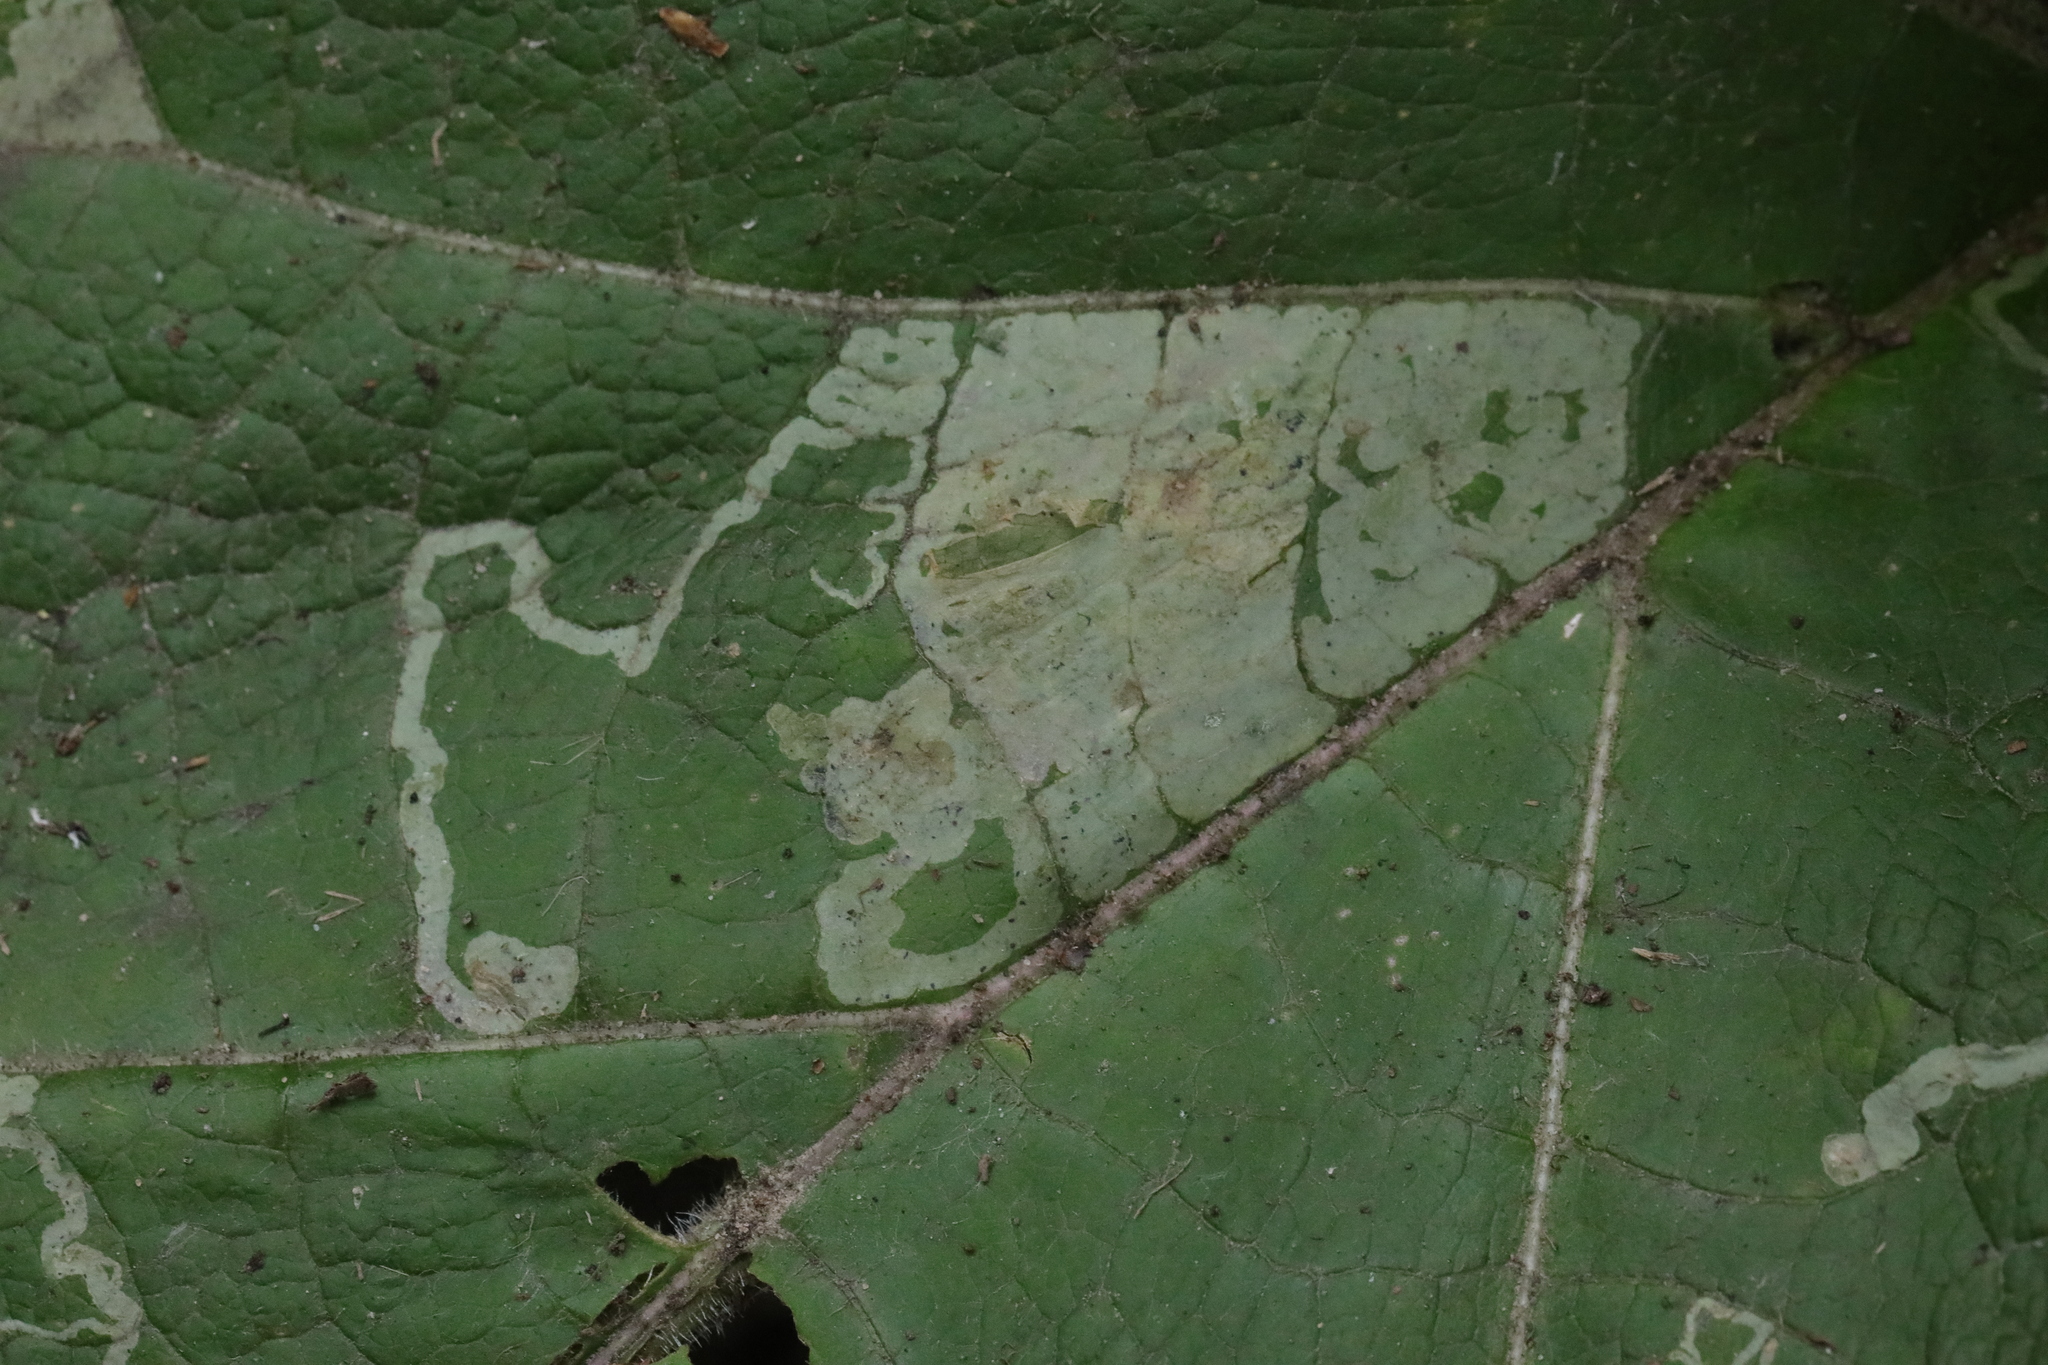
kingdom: Animalia
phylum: Arthropoda
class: Insecta
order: Diptera
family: Agromyzidae
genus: Phytomyza
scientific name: Phytomyza lappae
